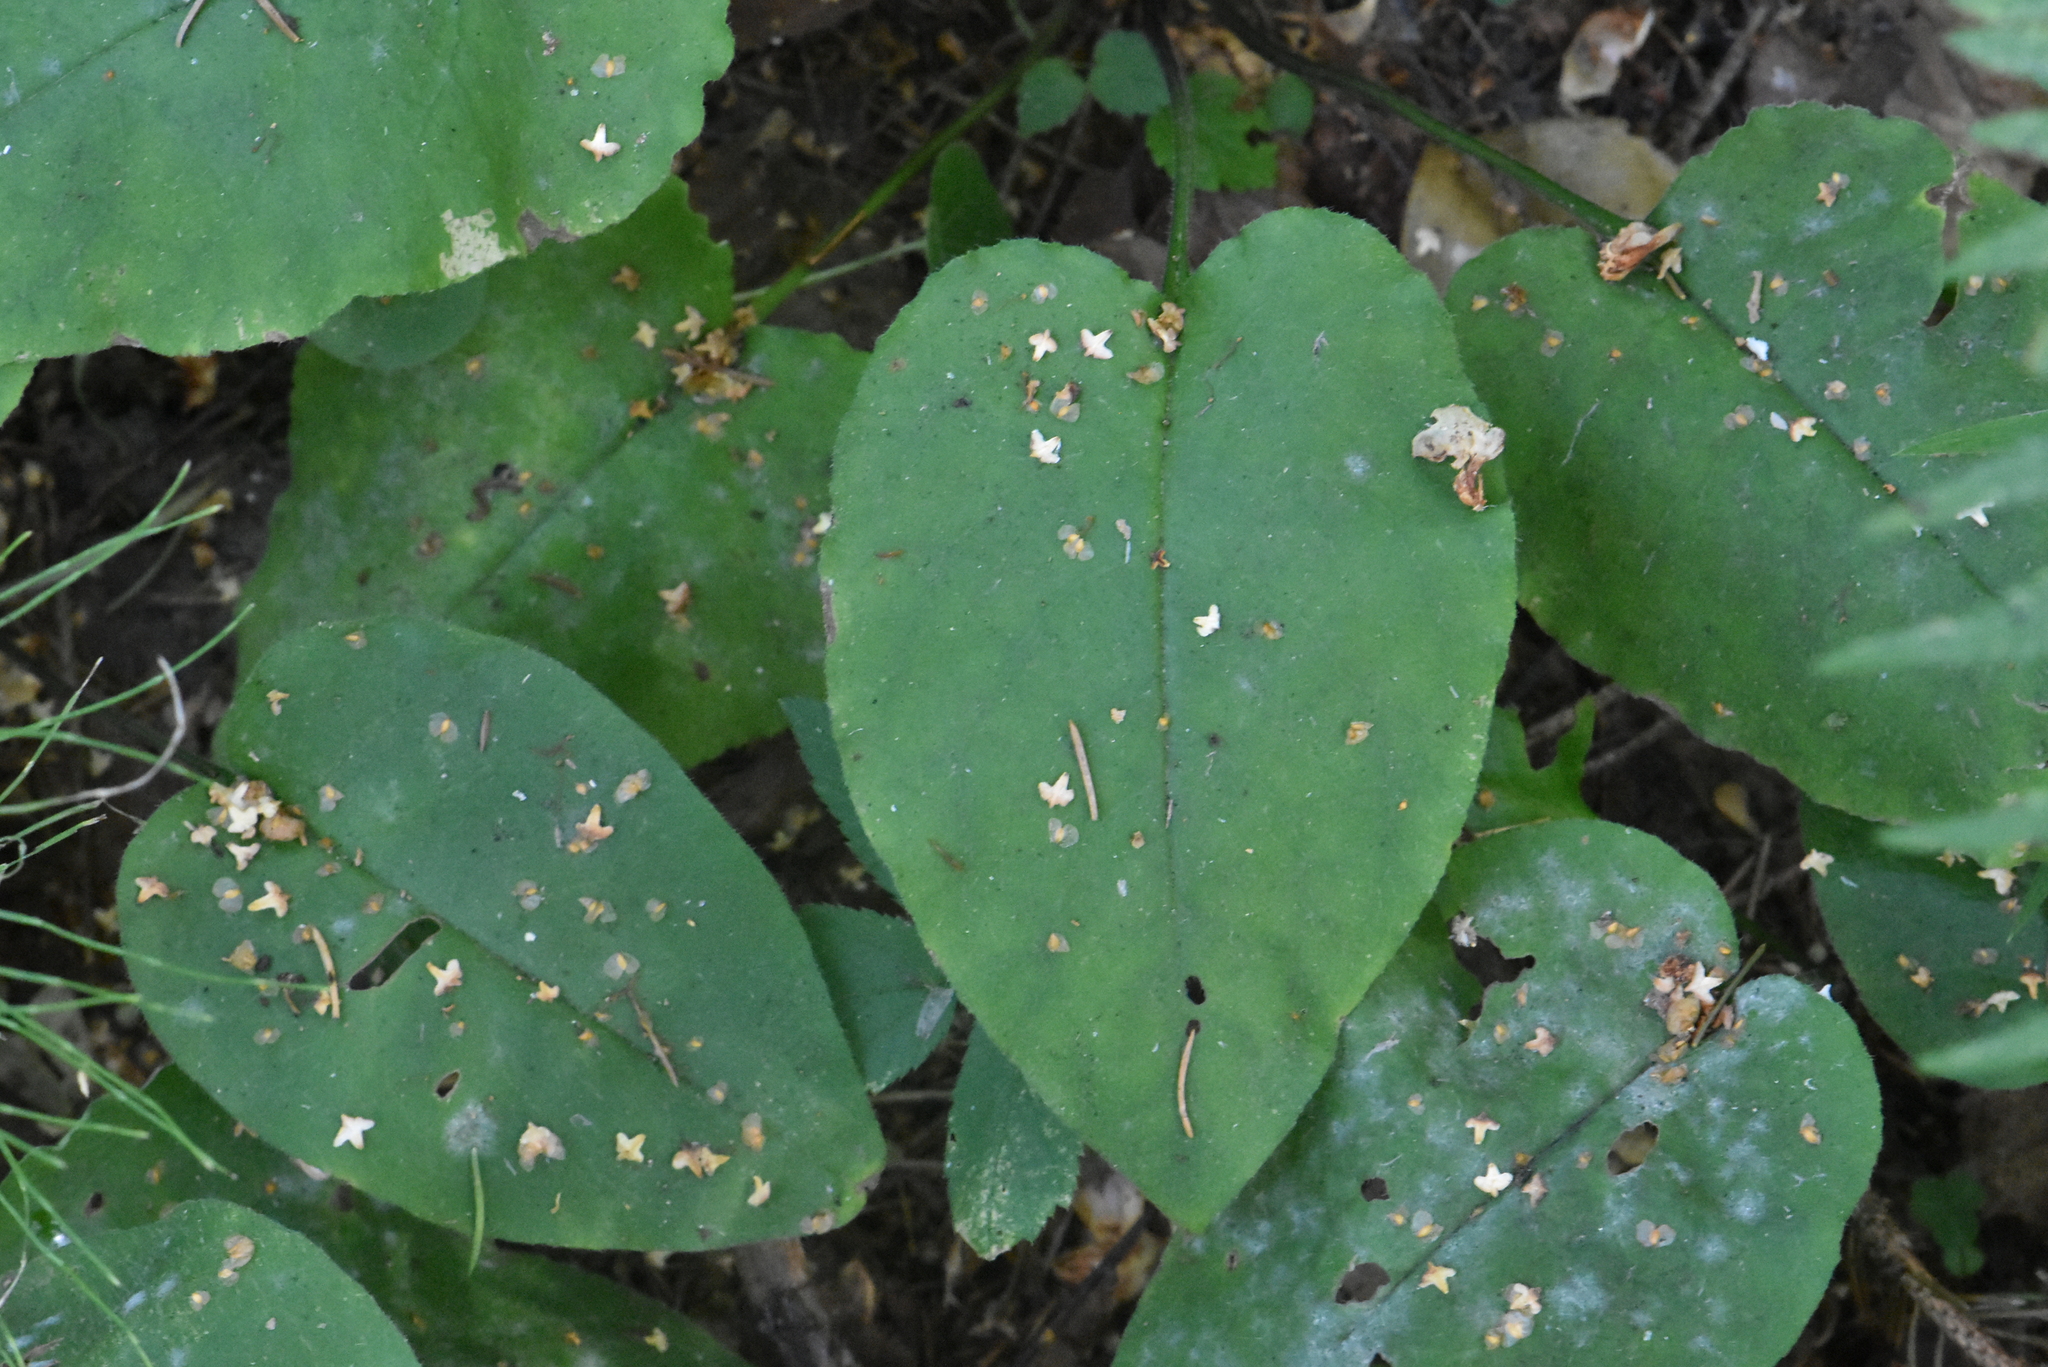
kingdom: Plantae
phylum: Tracheophyta
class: Magnoliopsida
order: Boraginales
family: Boraginaceae
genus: Pulmonaria
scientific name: Pulmonaria obscura
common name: Suffolk lungwort
